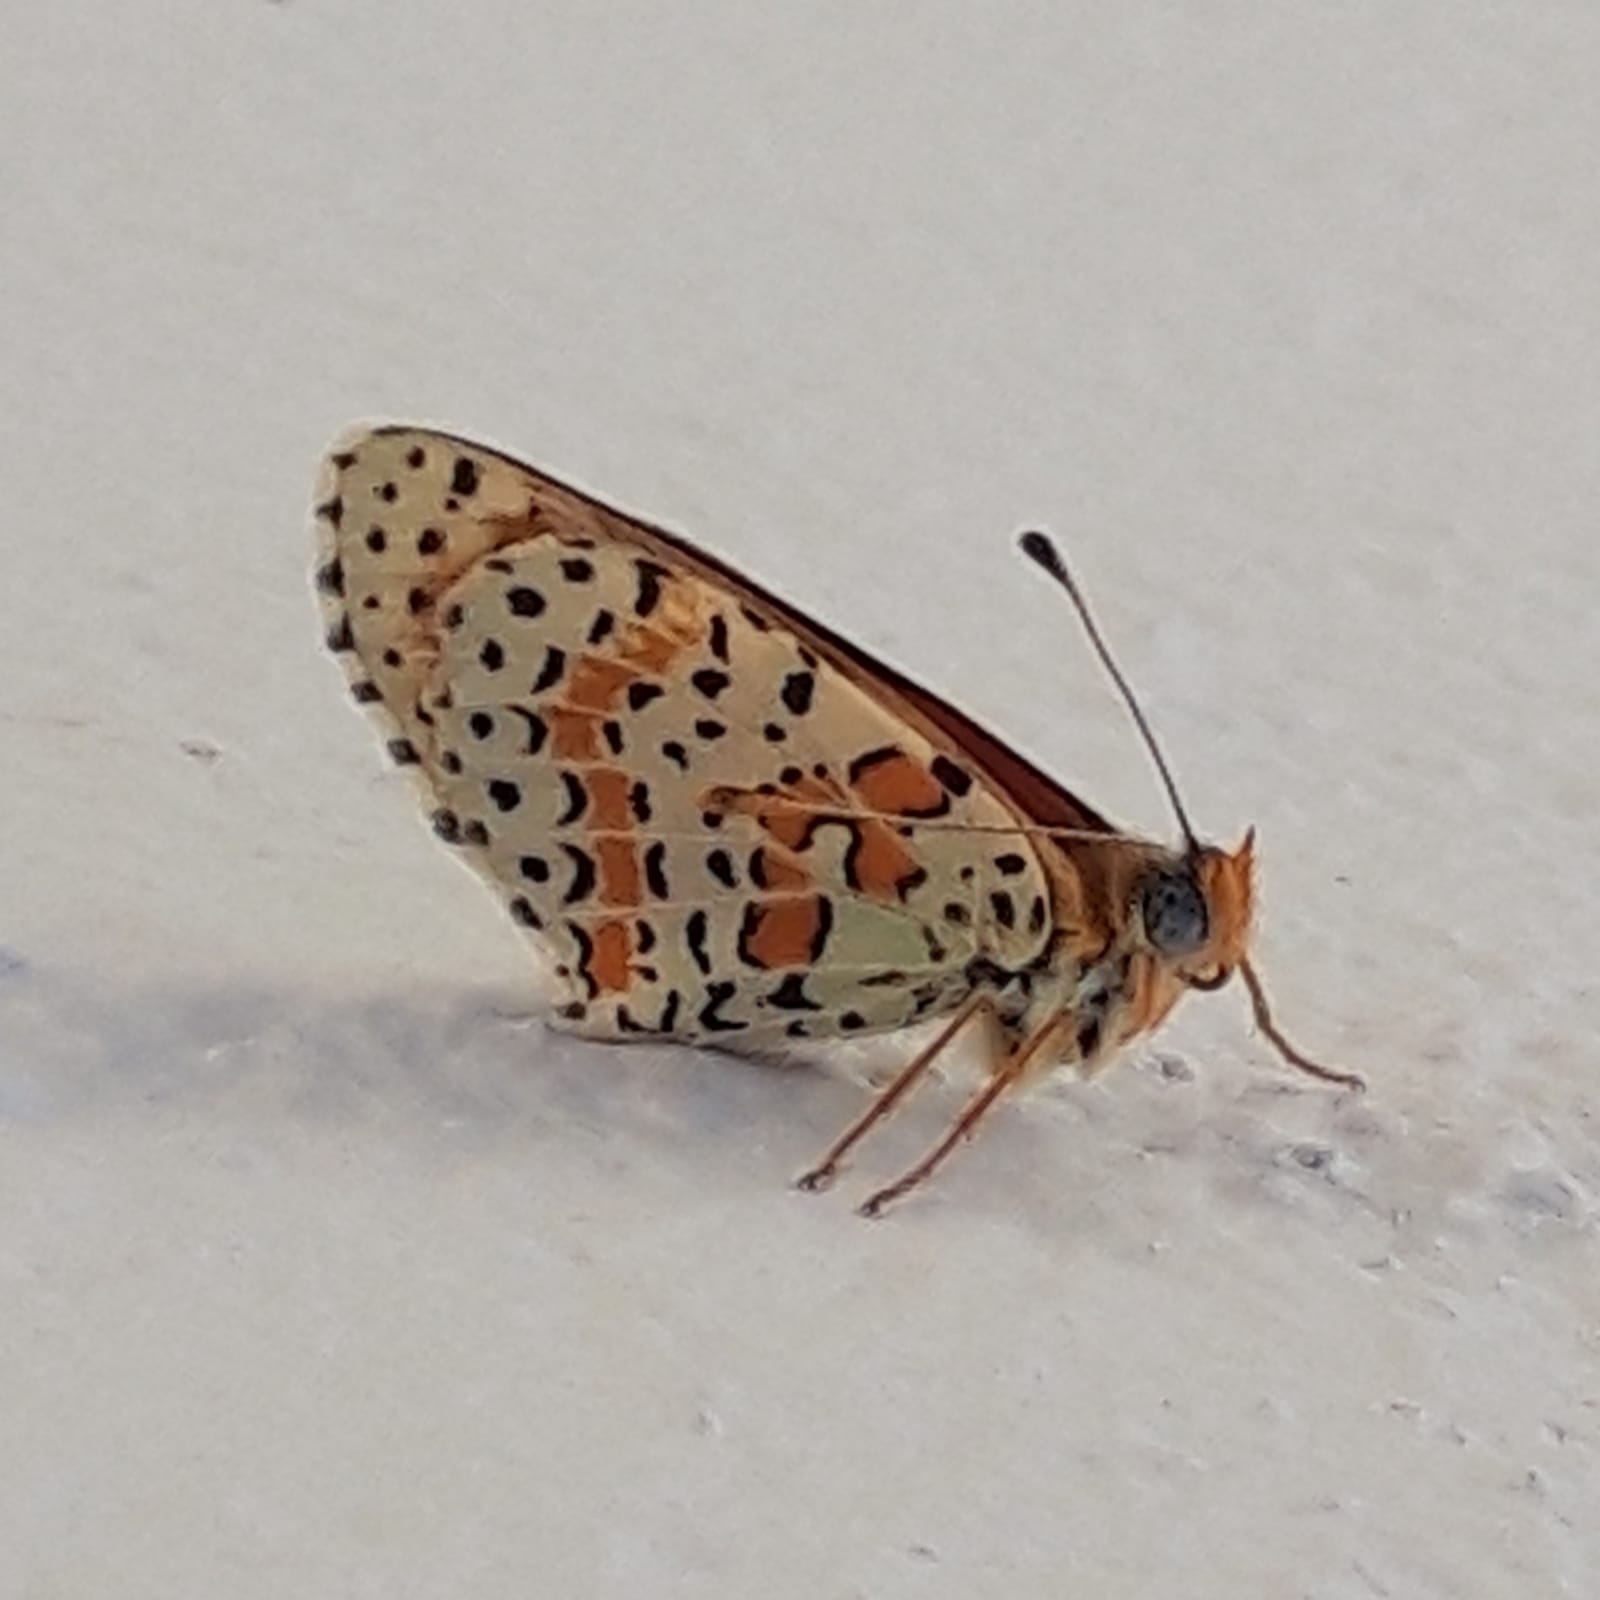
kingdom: Animalia
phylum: Arthropoda
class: Insecta
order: Lepidoptera
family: Nymphalidae
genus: Melitaea
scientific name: Melitaea didyma
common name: Spotted fritillary
